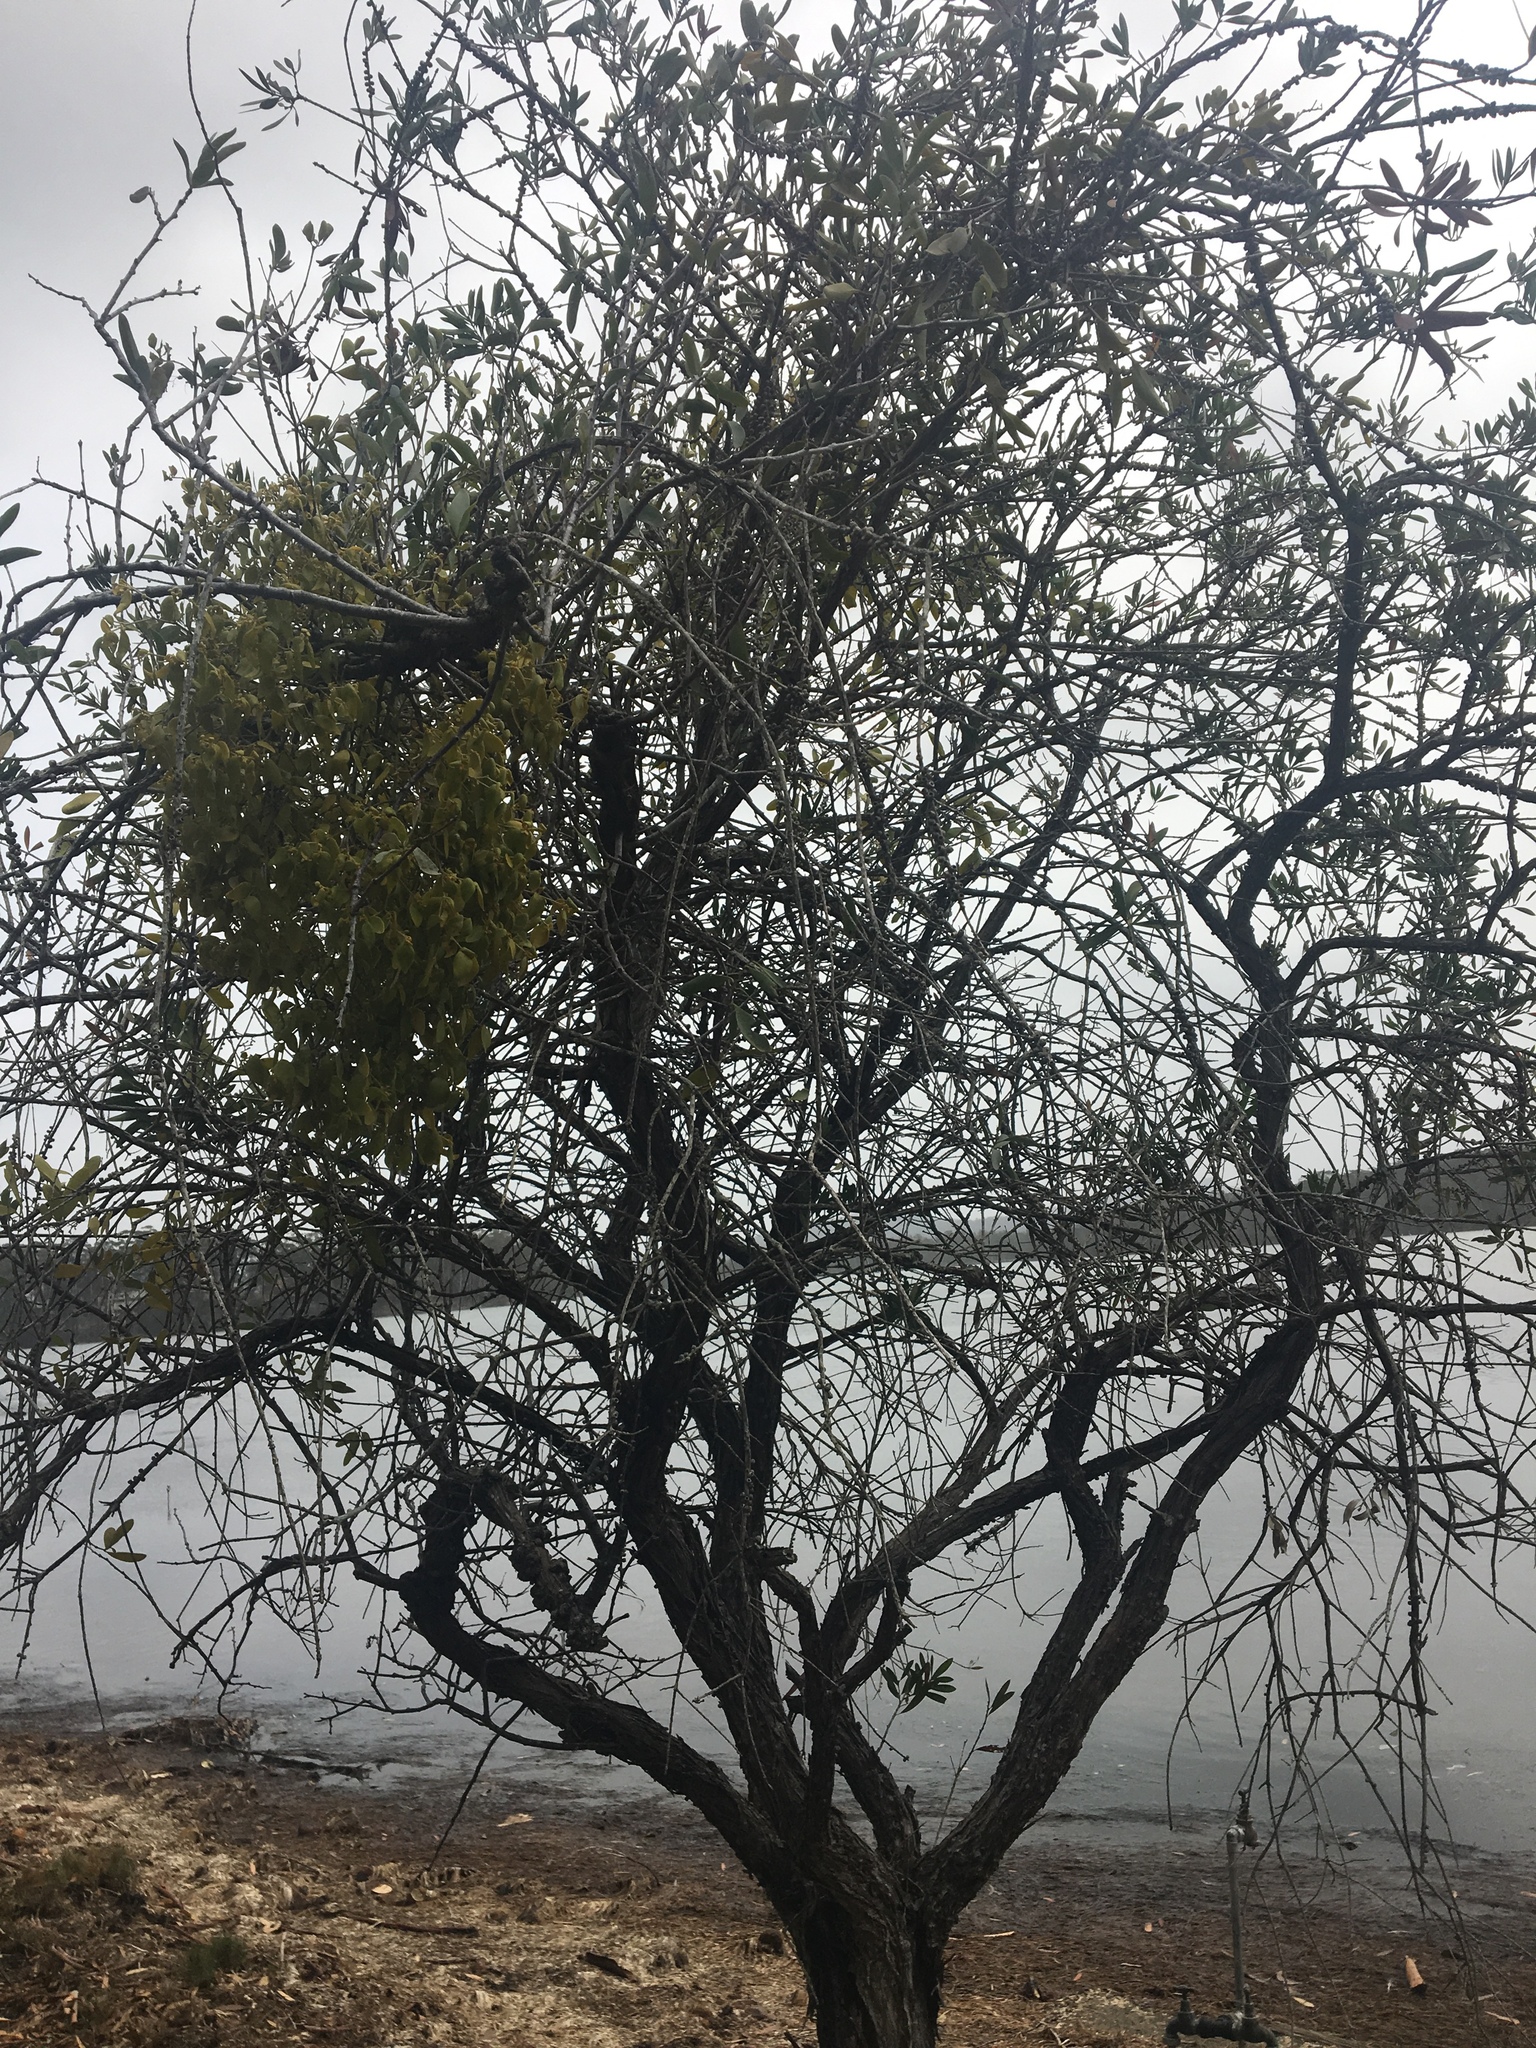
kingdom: Plantae
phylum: Tracheophyta
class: Magnoliopsida
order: Santalales
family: Viscaceae
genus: Notothixos
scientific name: Notothixos subaureus
